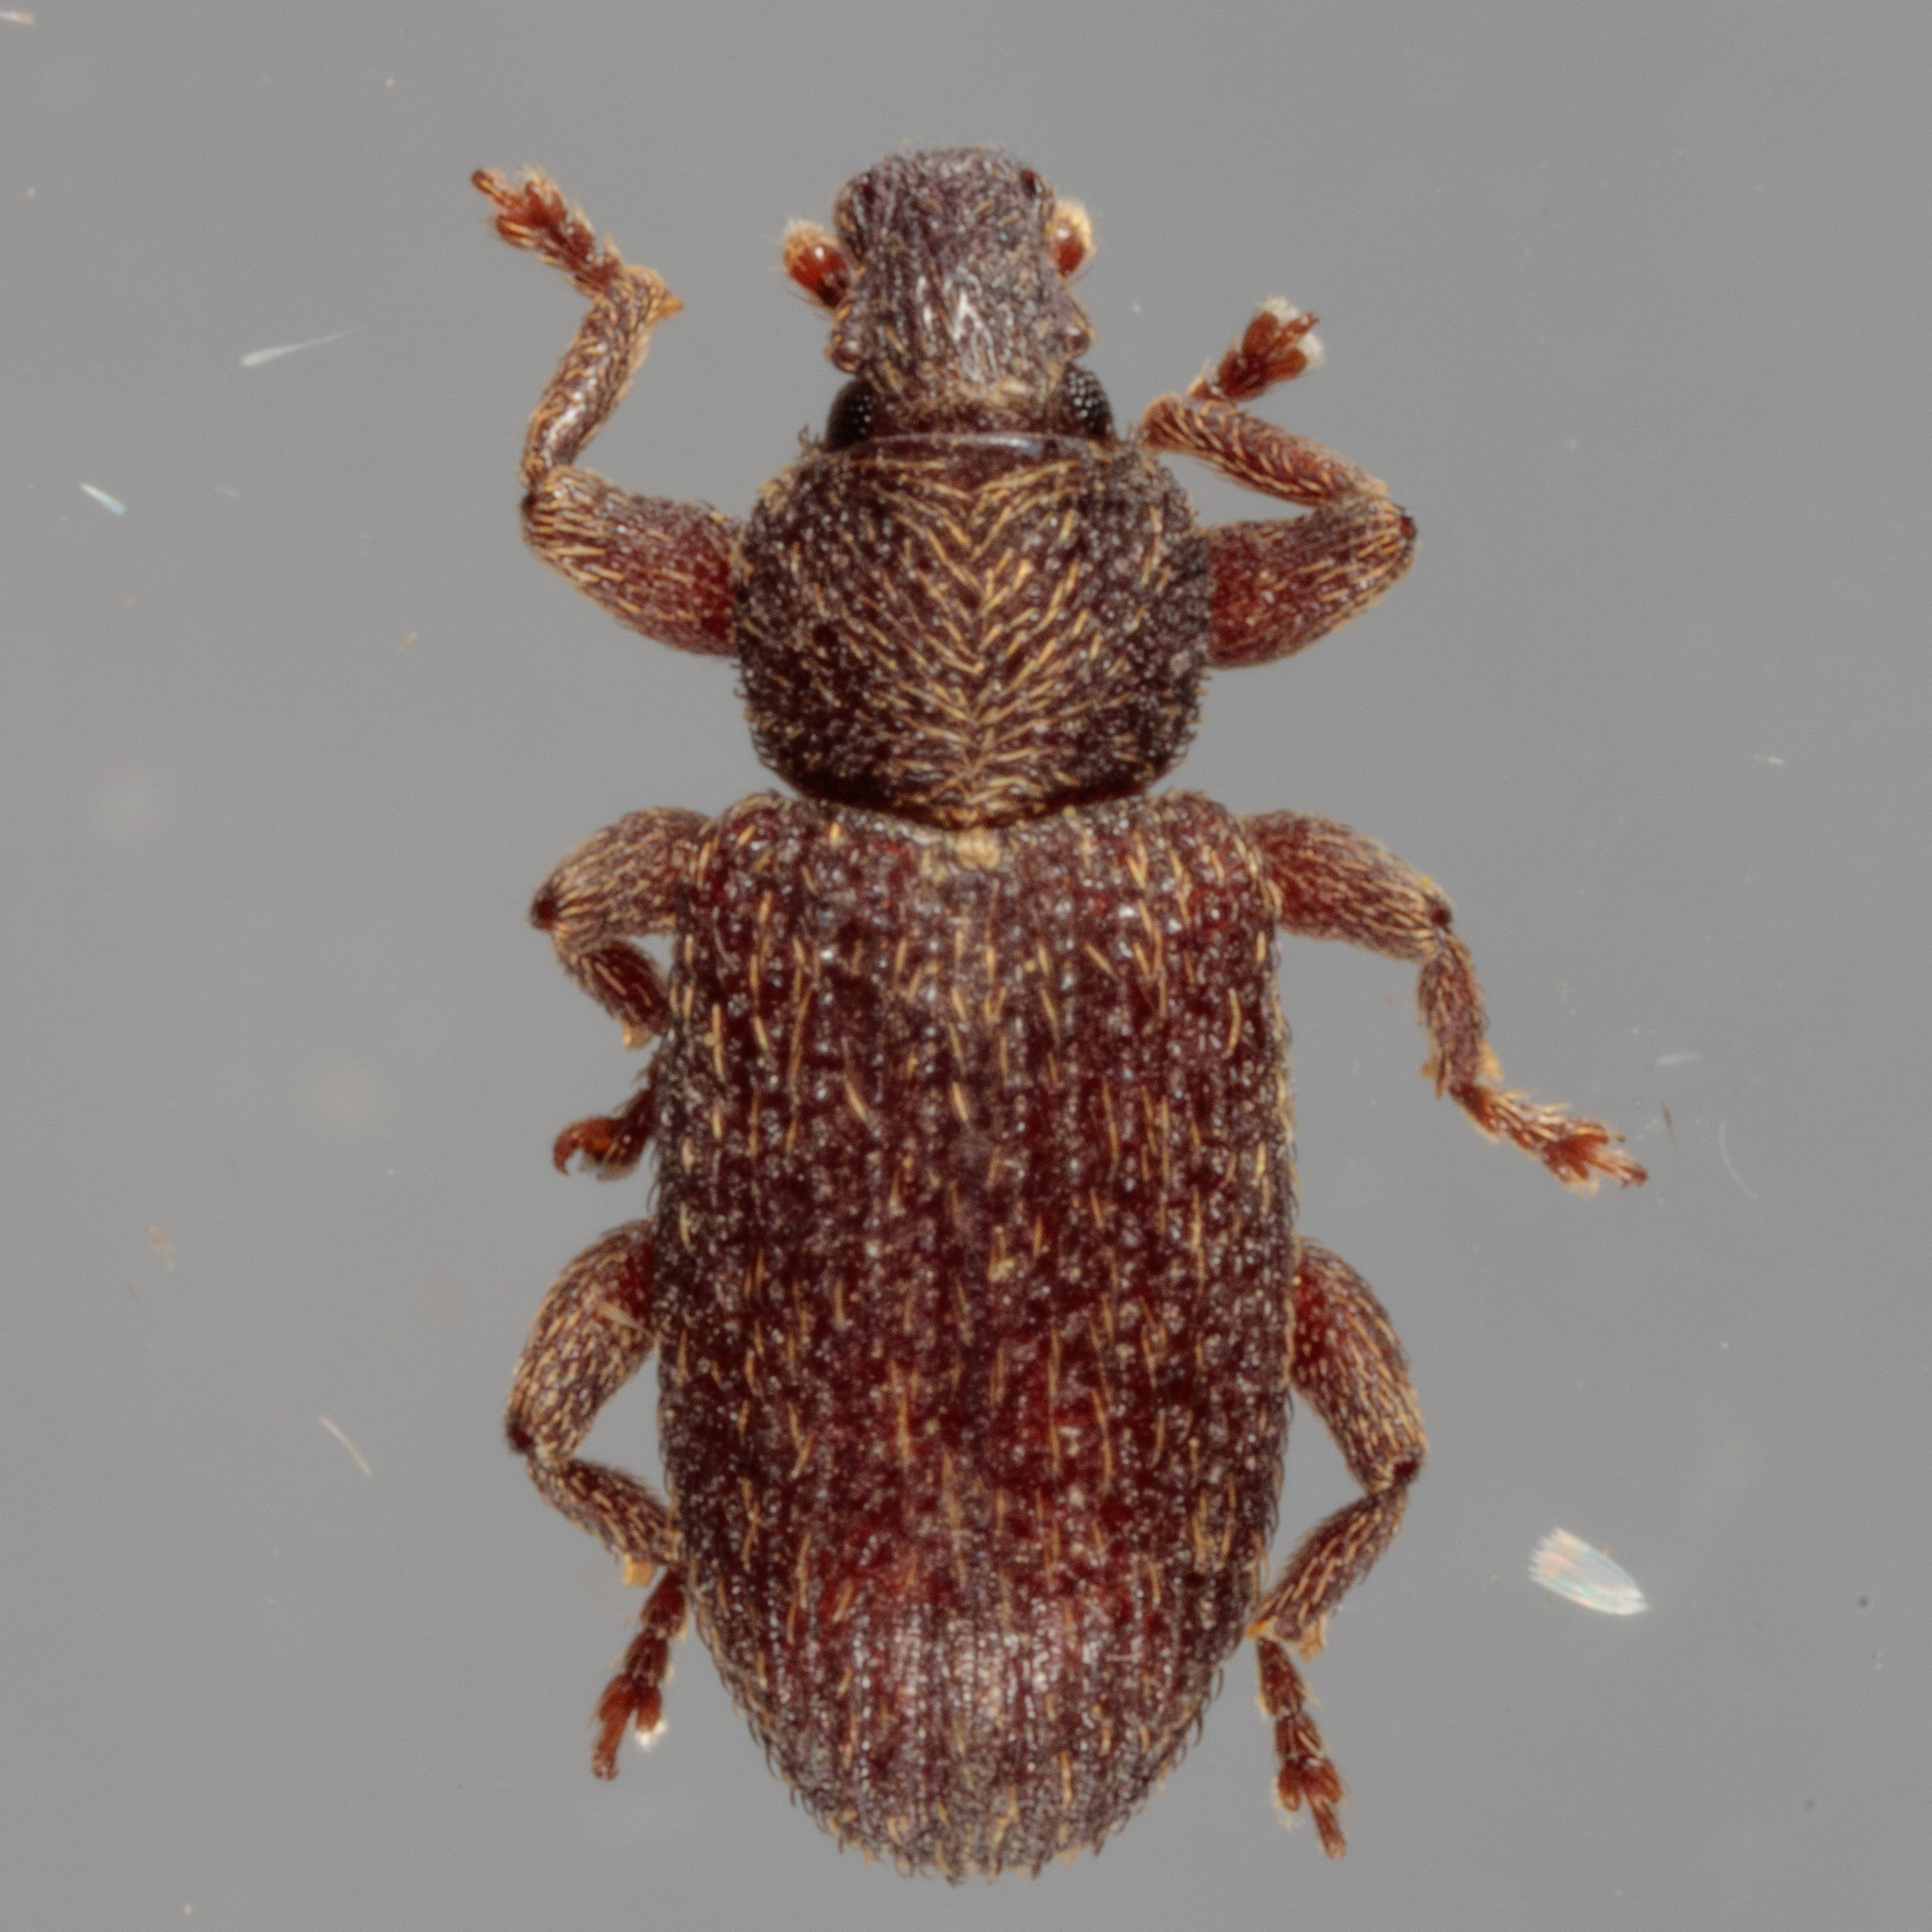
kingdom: Animalia
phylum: Arthropoda
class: Insecta
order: Coleoptera
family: Curculionidae
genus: Hormops
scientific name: Hormops abducens
